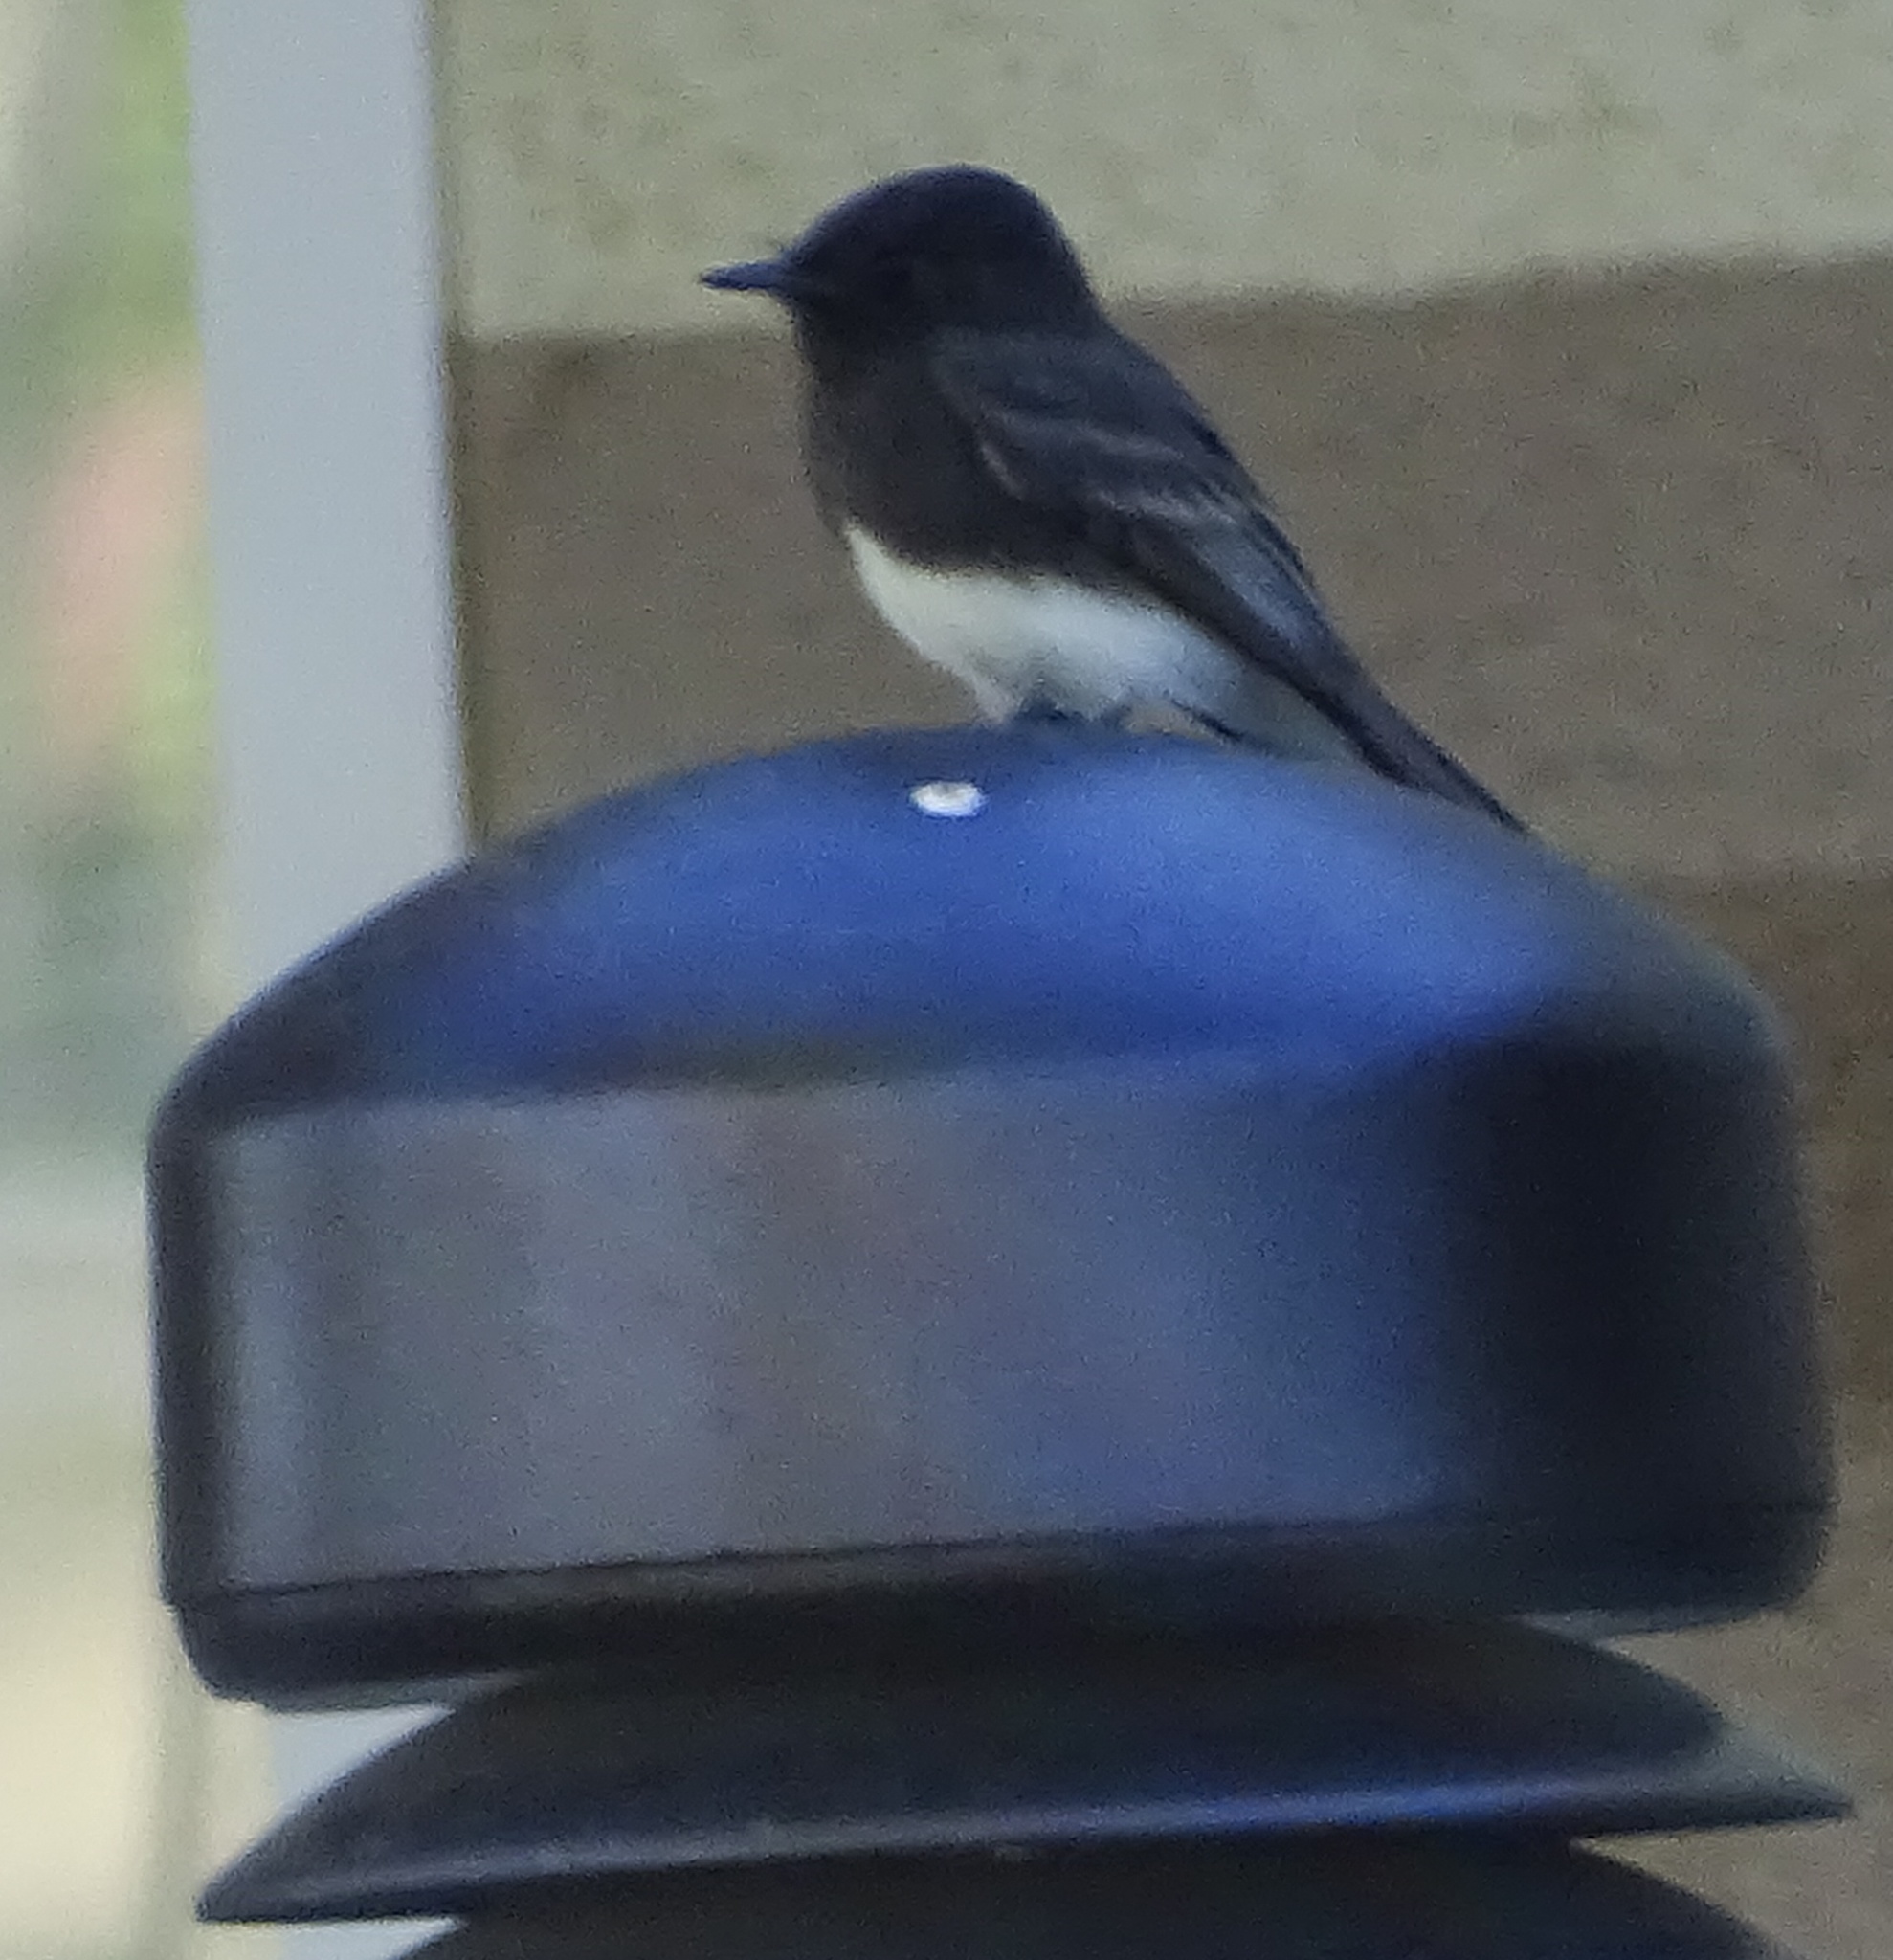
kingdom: Animalia
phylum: Chordata
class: Aves
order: Passeriformes
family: Tyrannidae
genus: Sayornis
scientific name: Sayornis nigricans
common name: Black phoebe
